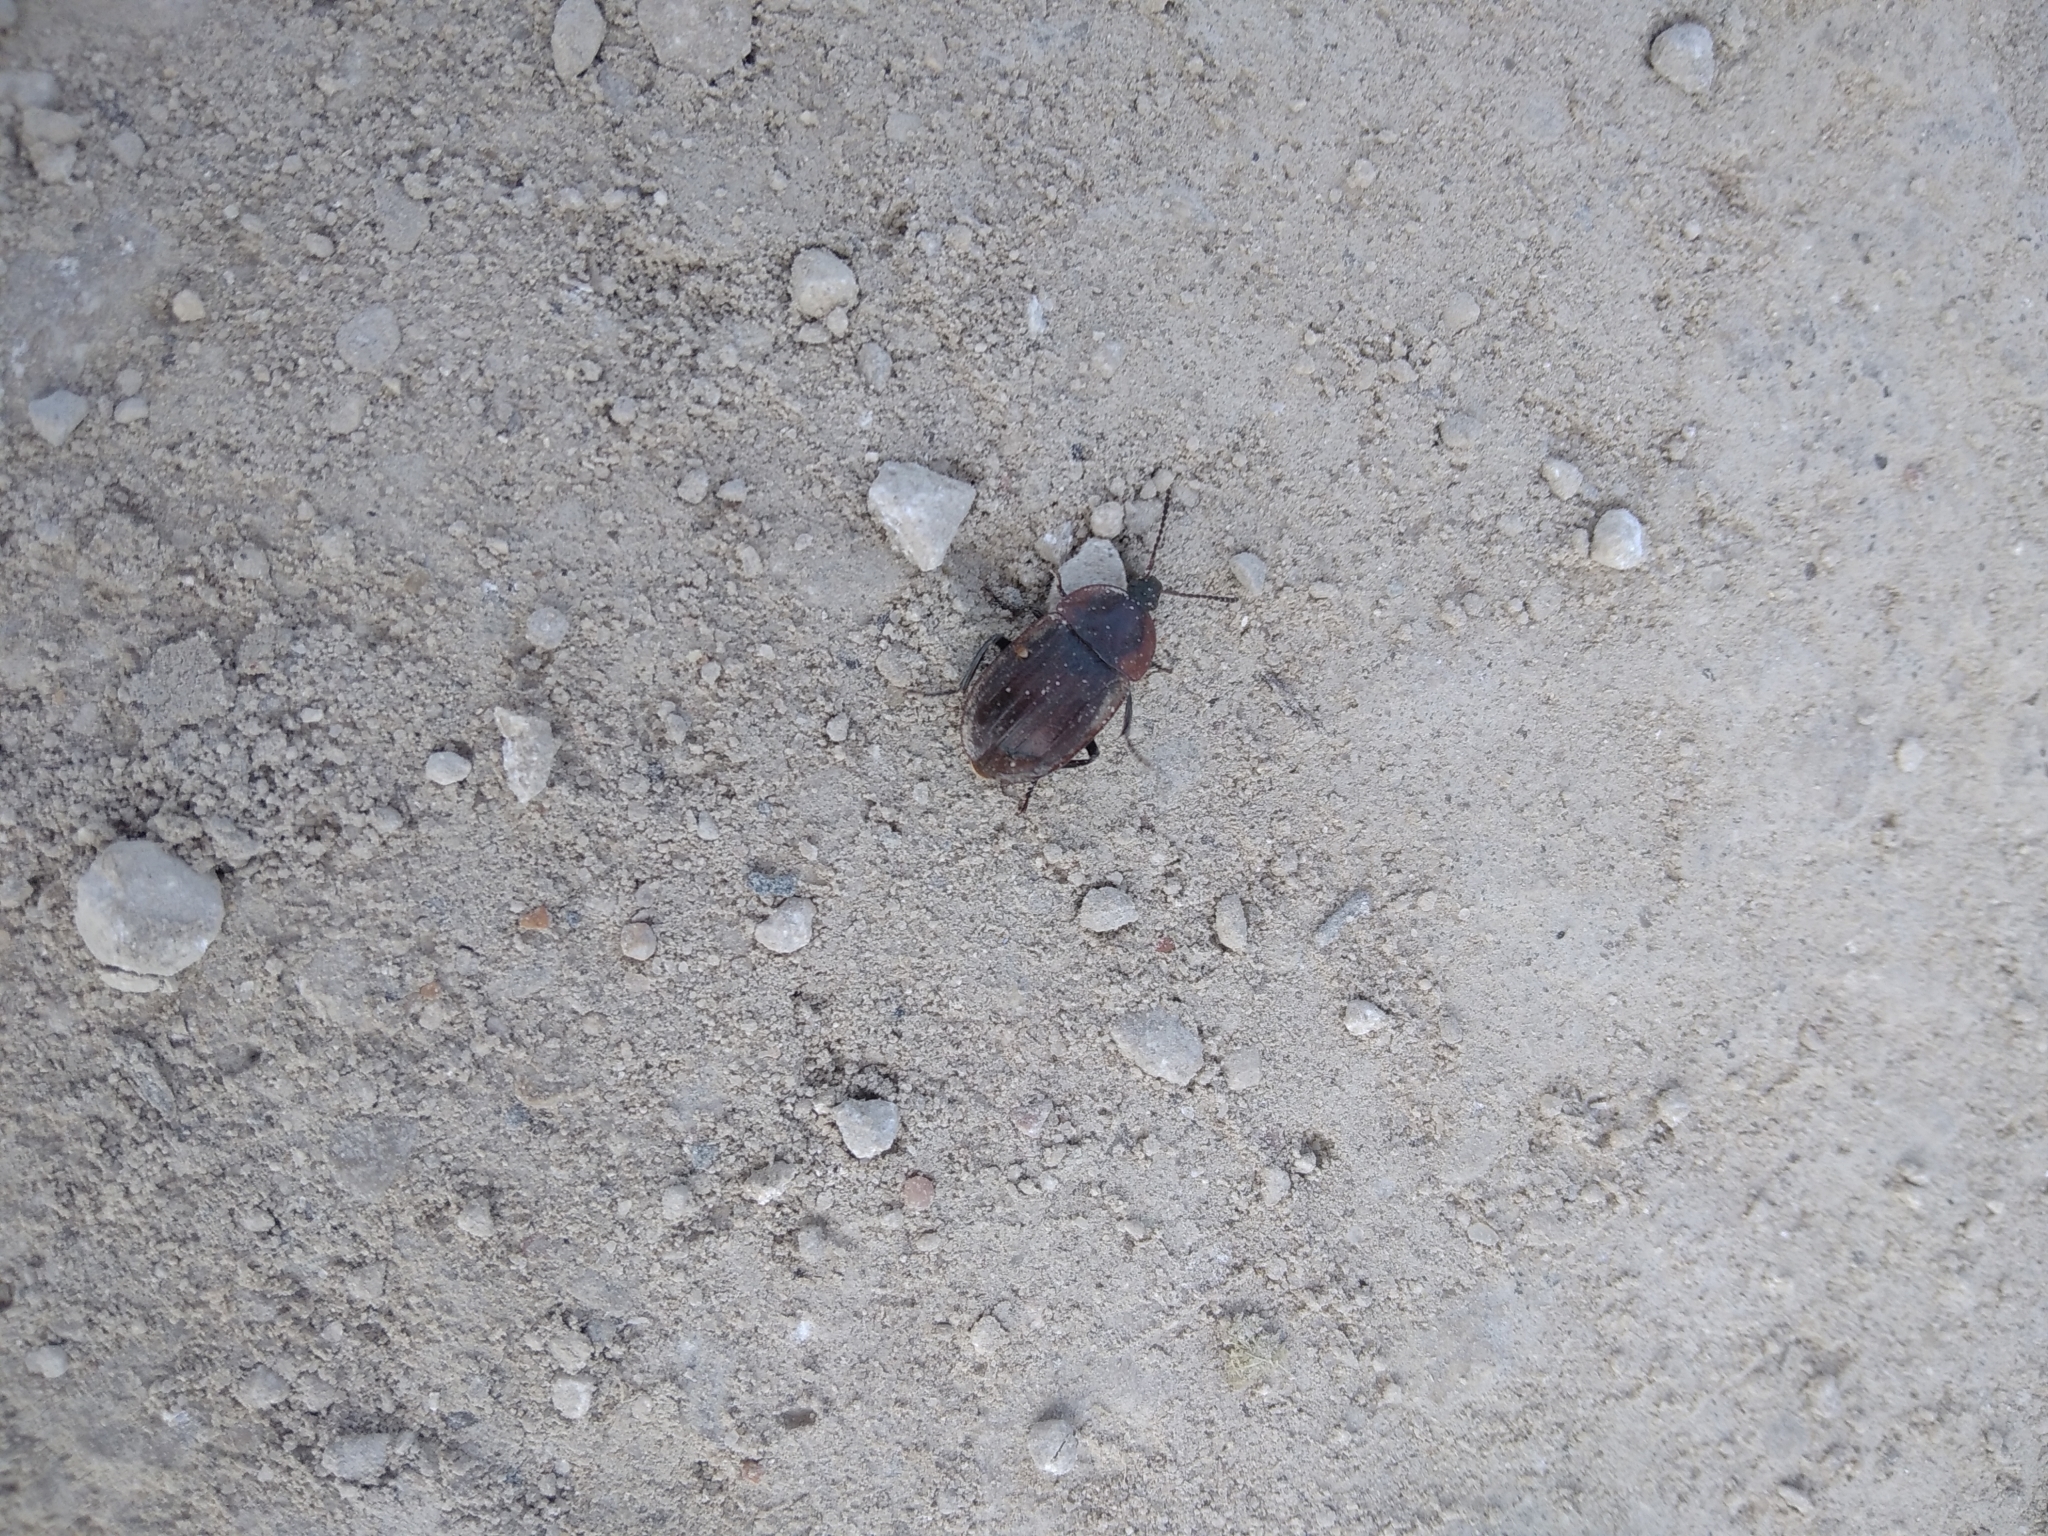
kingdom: Animalia
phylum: Arthropoda
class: Insecta
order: Coleoptera
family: Staphylinidae
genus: Silpha
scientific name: Silpha atrata
